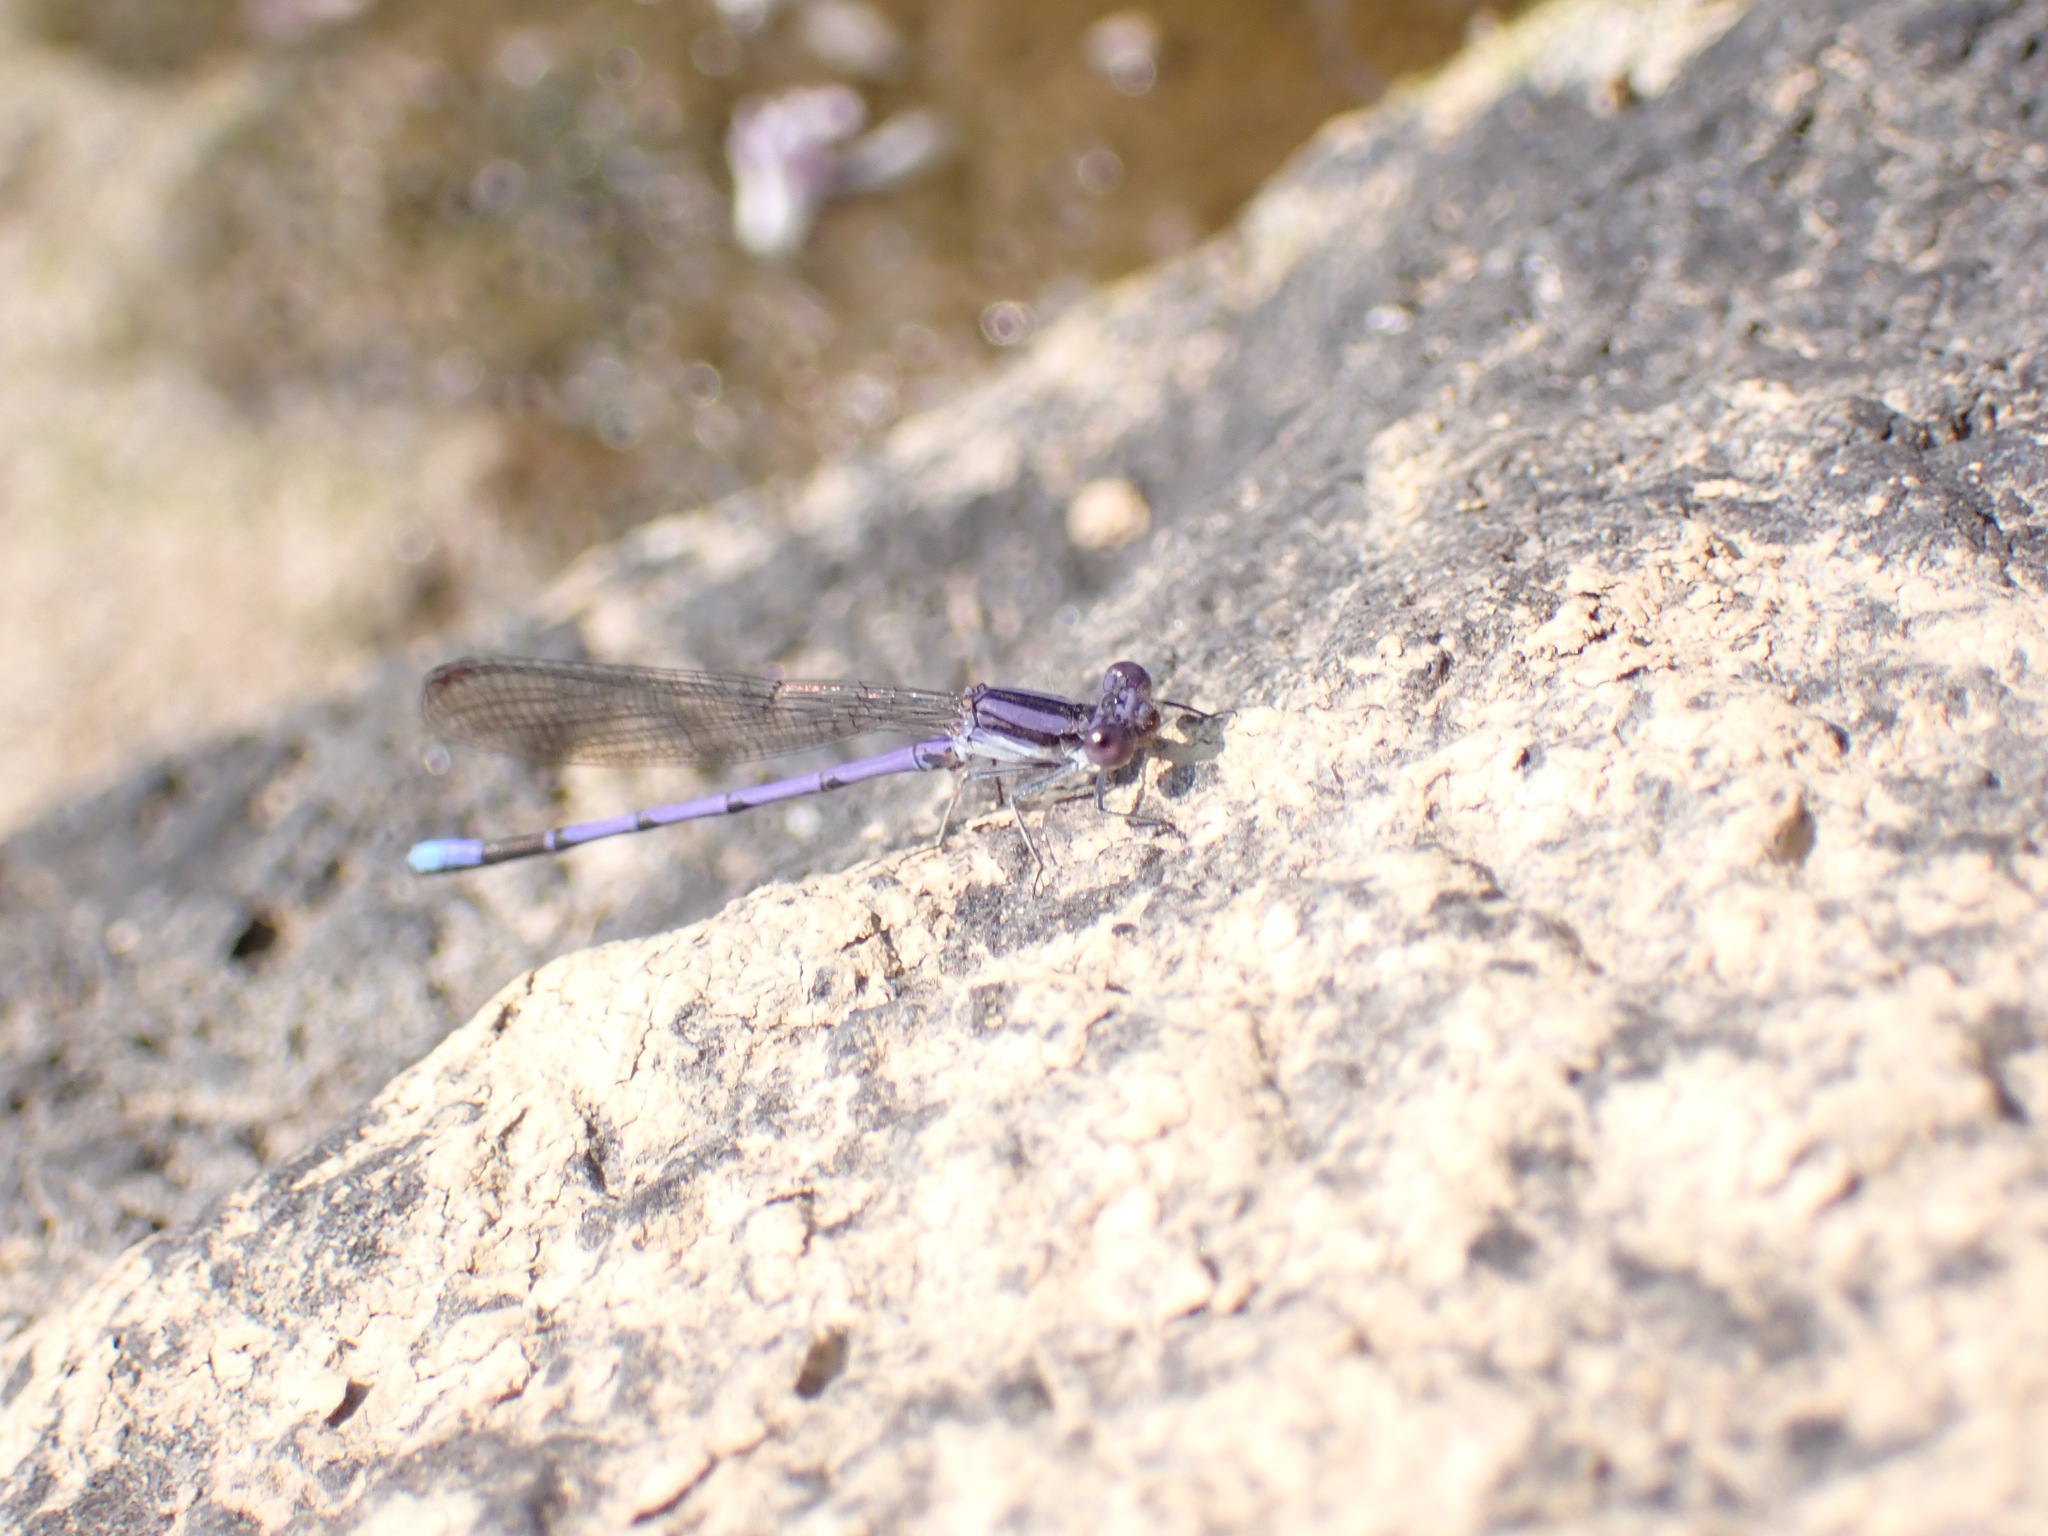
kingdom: Animalia
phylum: Arthropoda
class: Insecta
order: Odonata
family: Coenagrionidae
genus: Argia
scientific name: Argia fumipennis
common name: Variable dancer
